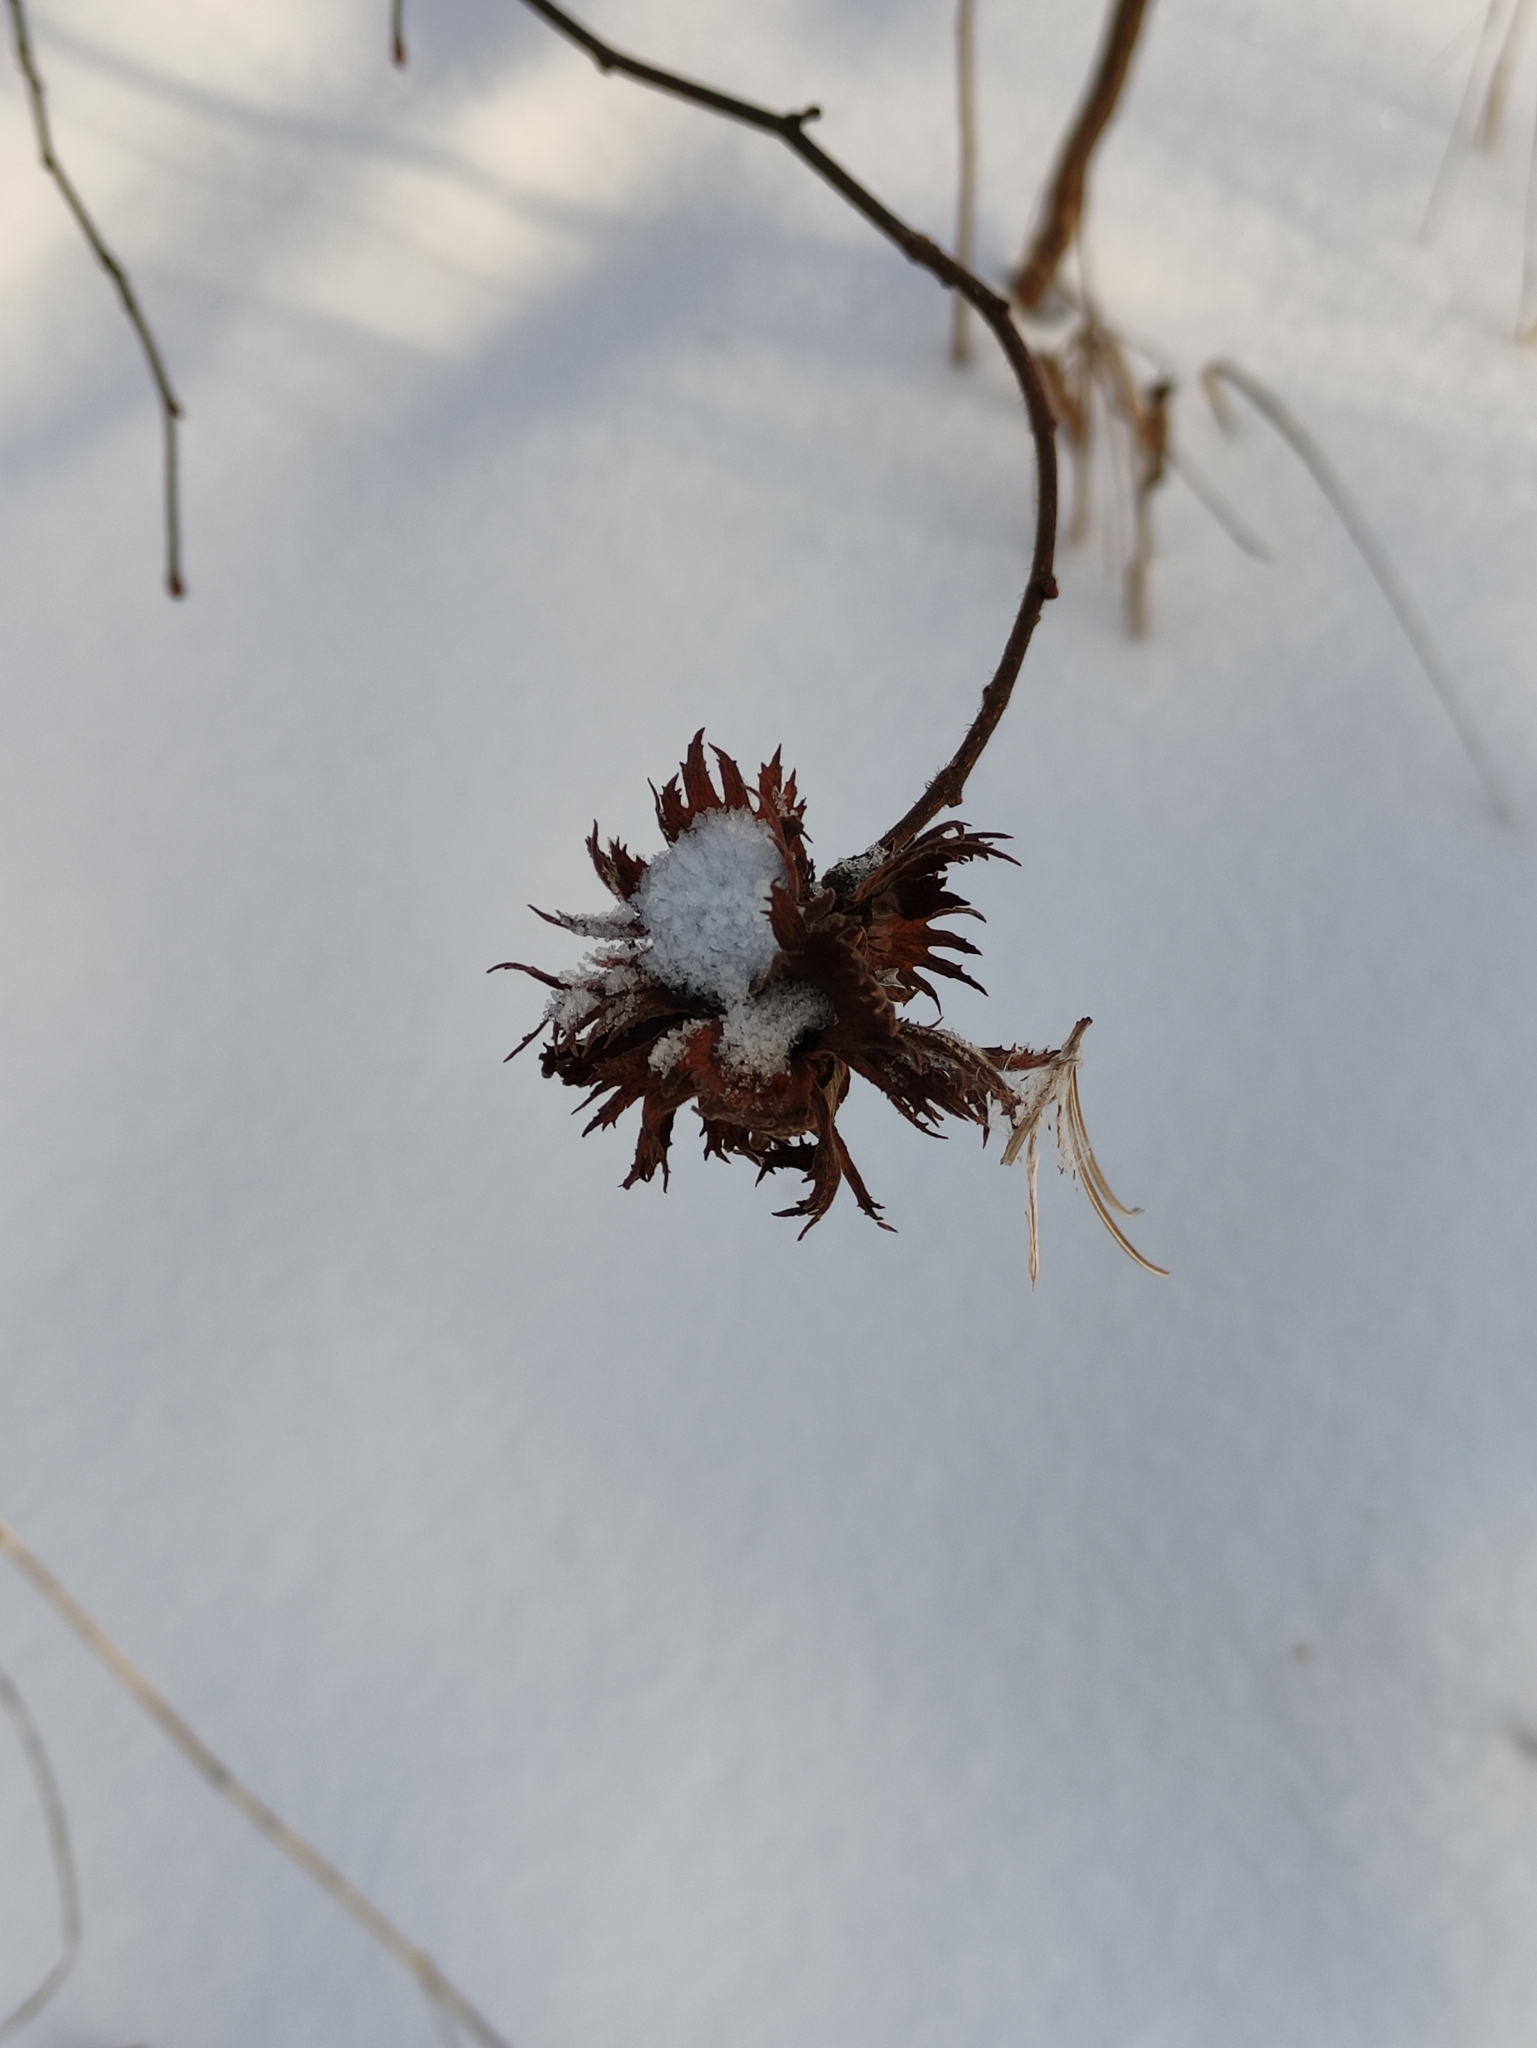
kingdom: Plantae
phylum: Tracheophyta
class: Magnoliopsida
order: Fagales
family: Betulaceae
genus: Corylus
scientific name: Corylus avellana
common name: European hazel
